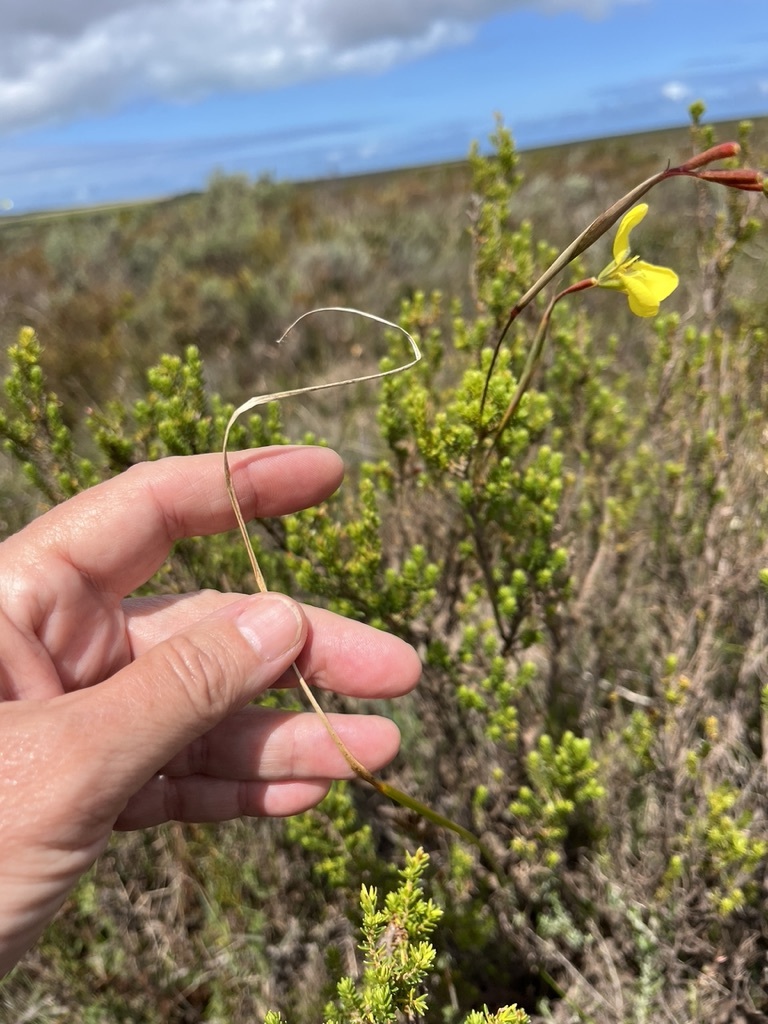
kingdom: Plantae
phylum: Tracheophyta
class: Liliopsida
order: Asparagales
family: Iridaceae
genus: Moraea
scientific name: Moraea bellendenii
